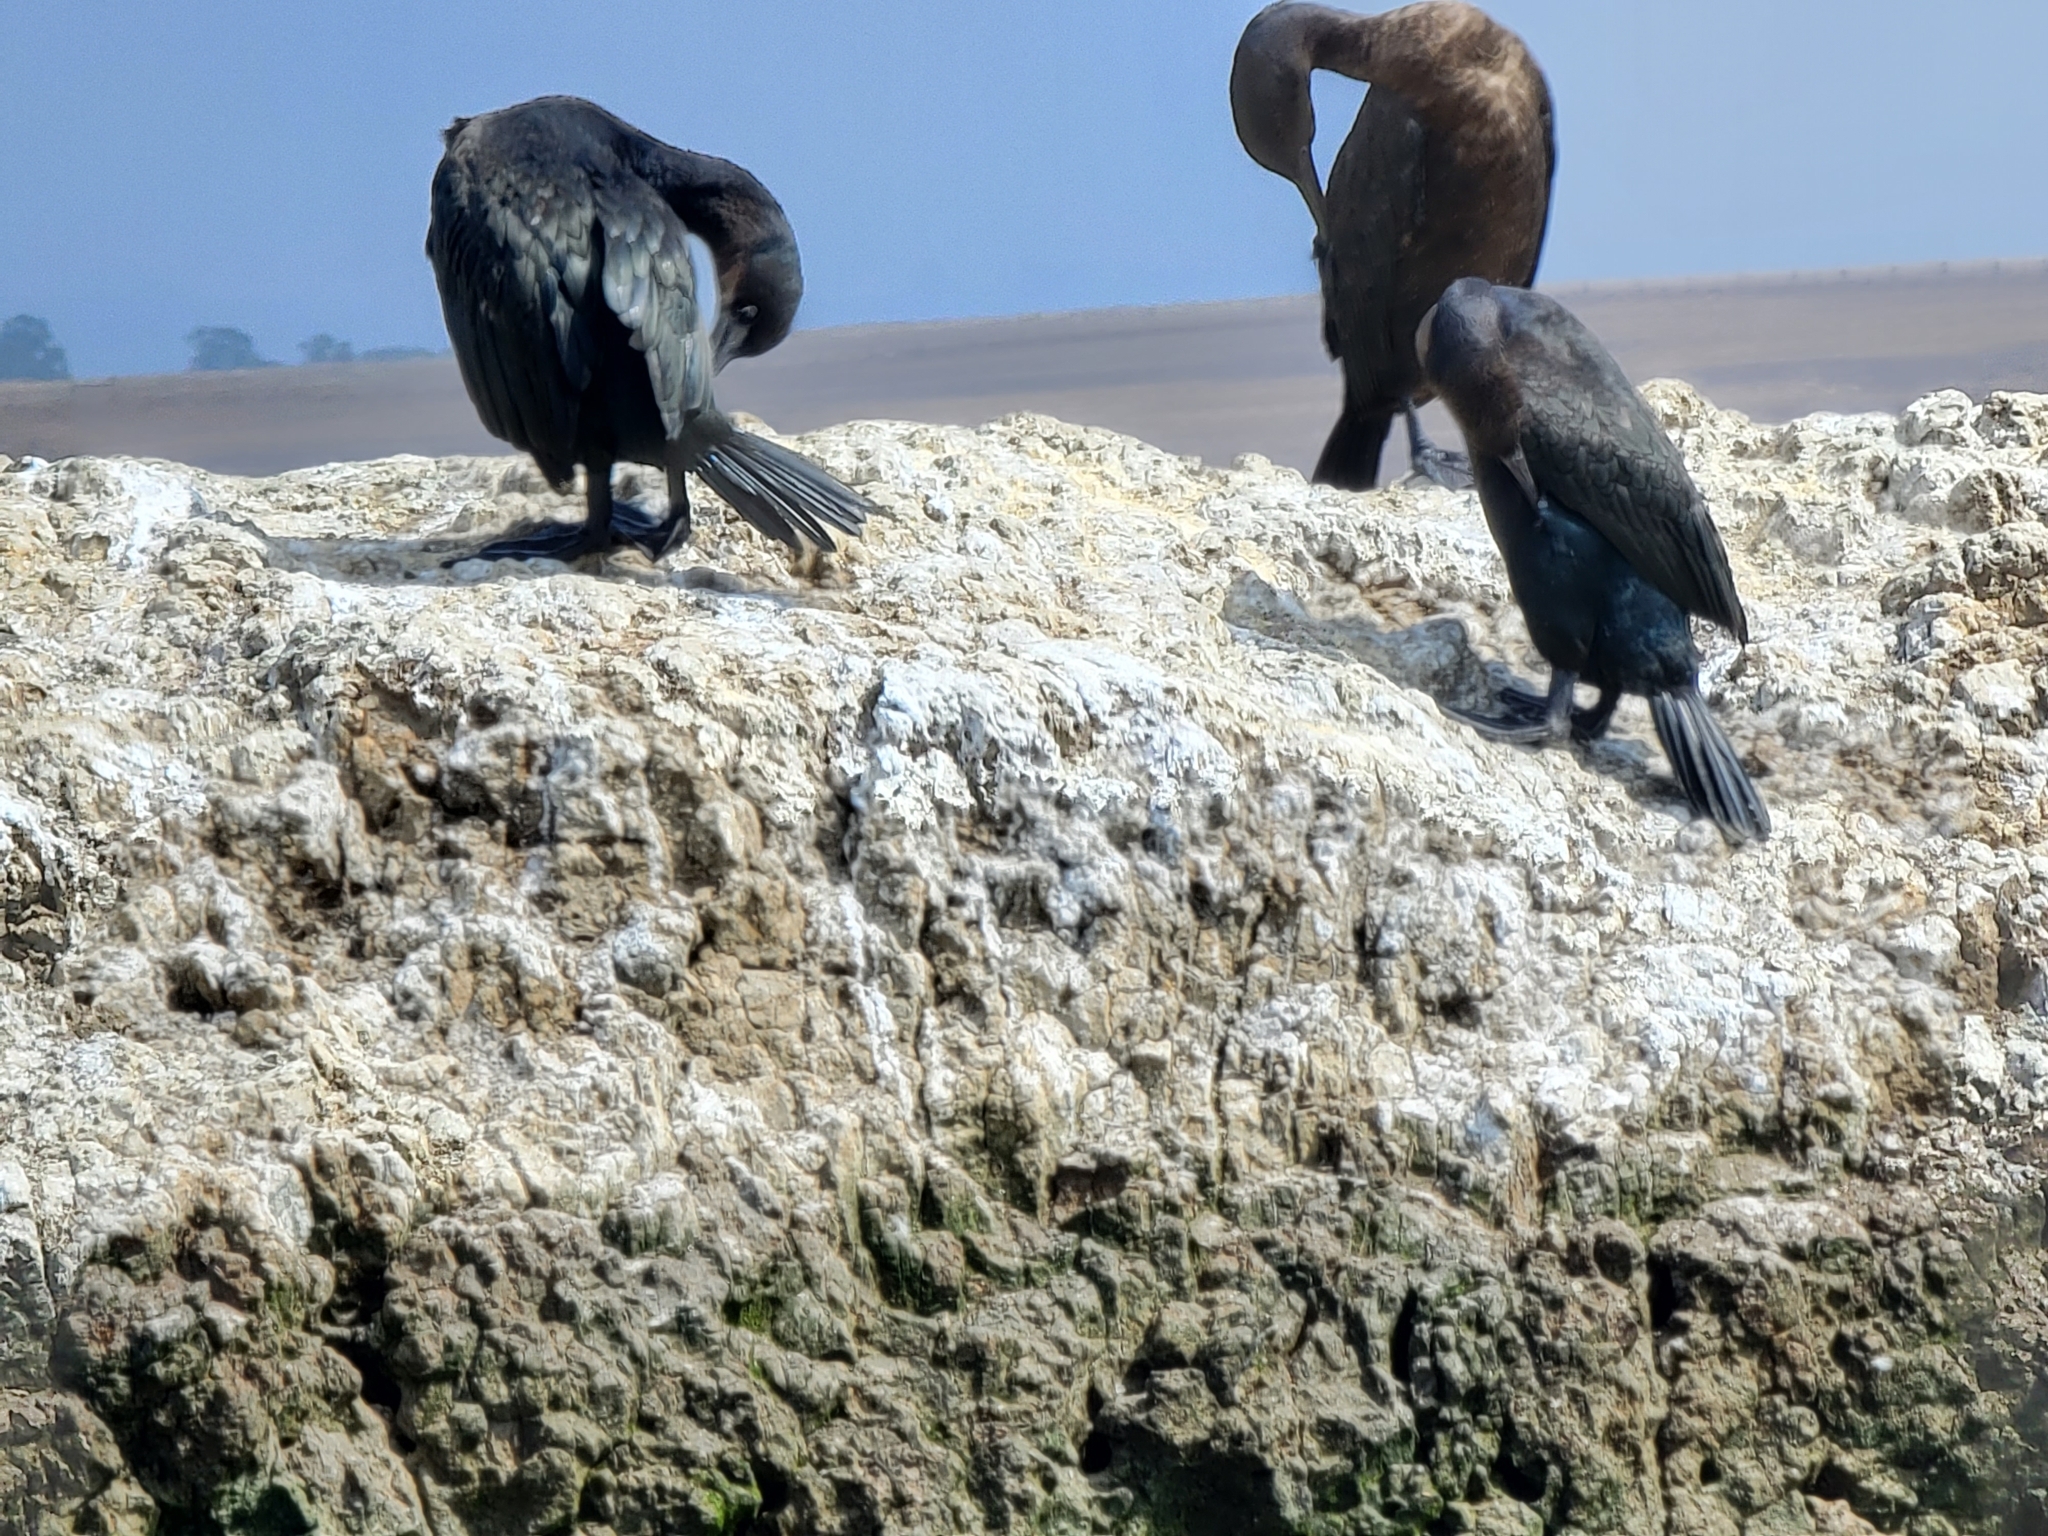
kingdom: Animalia
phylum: Chordata
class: Aves
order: Suliformes
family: Phalacrocoracidae
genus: Urile
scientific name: Urile penicillatus
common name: Brandt's cormorant
